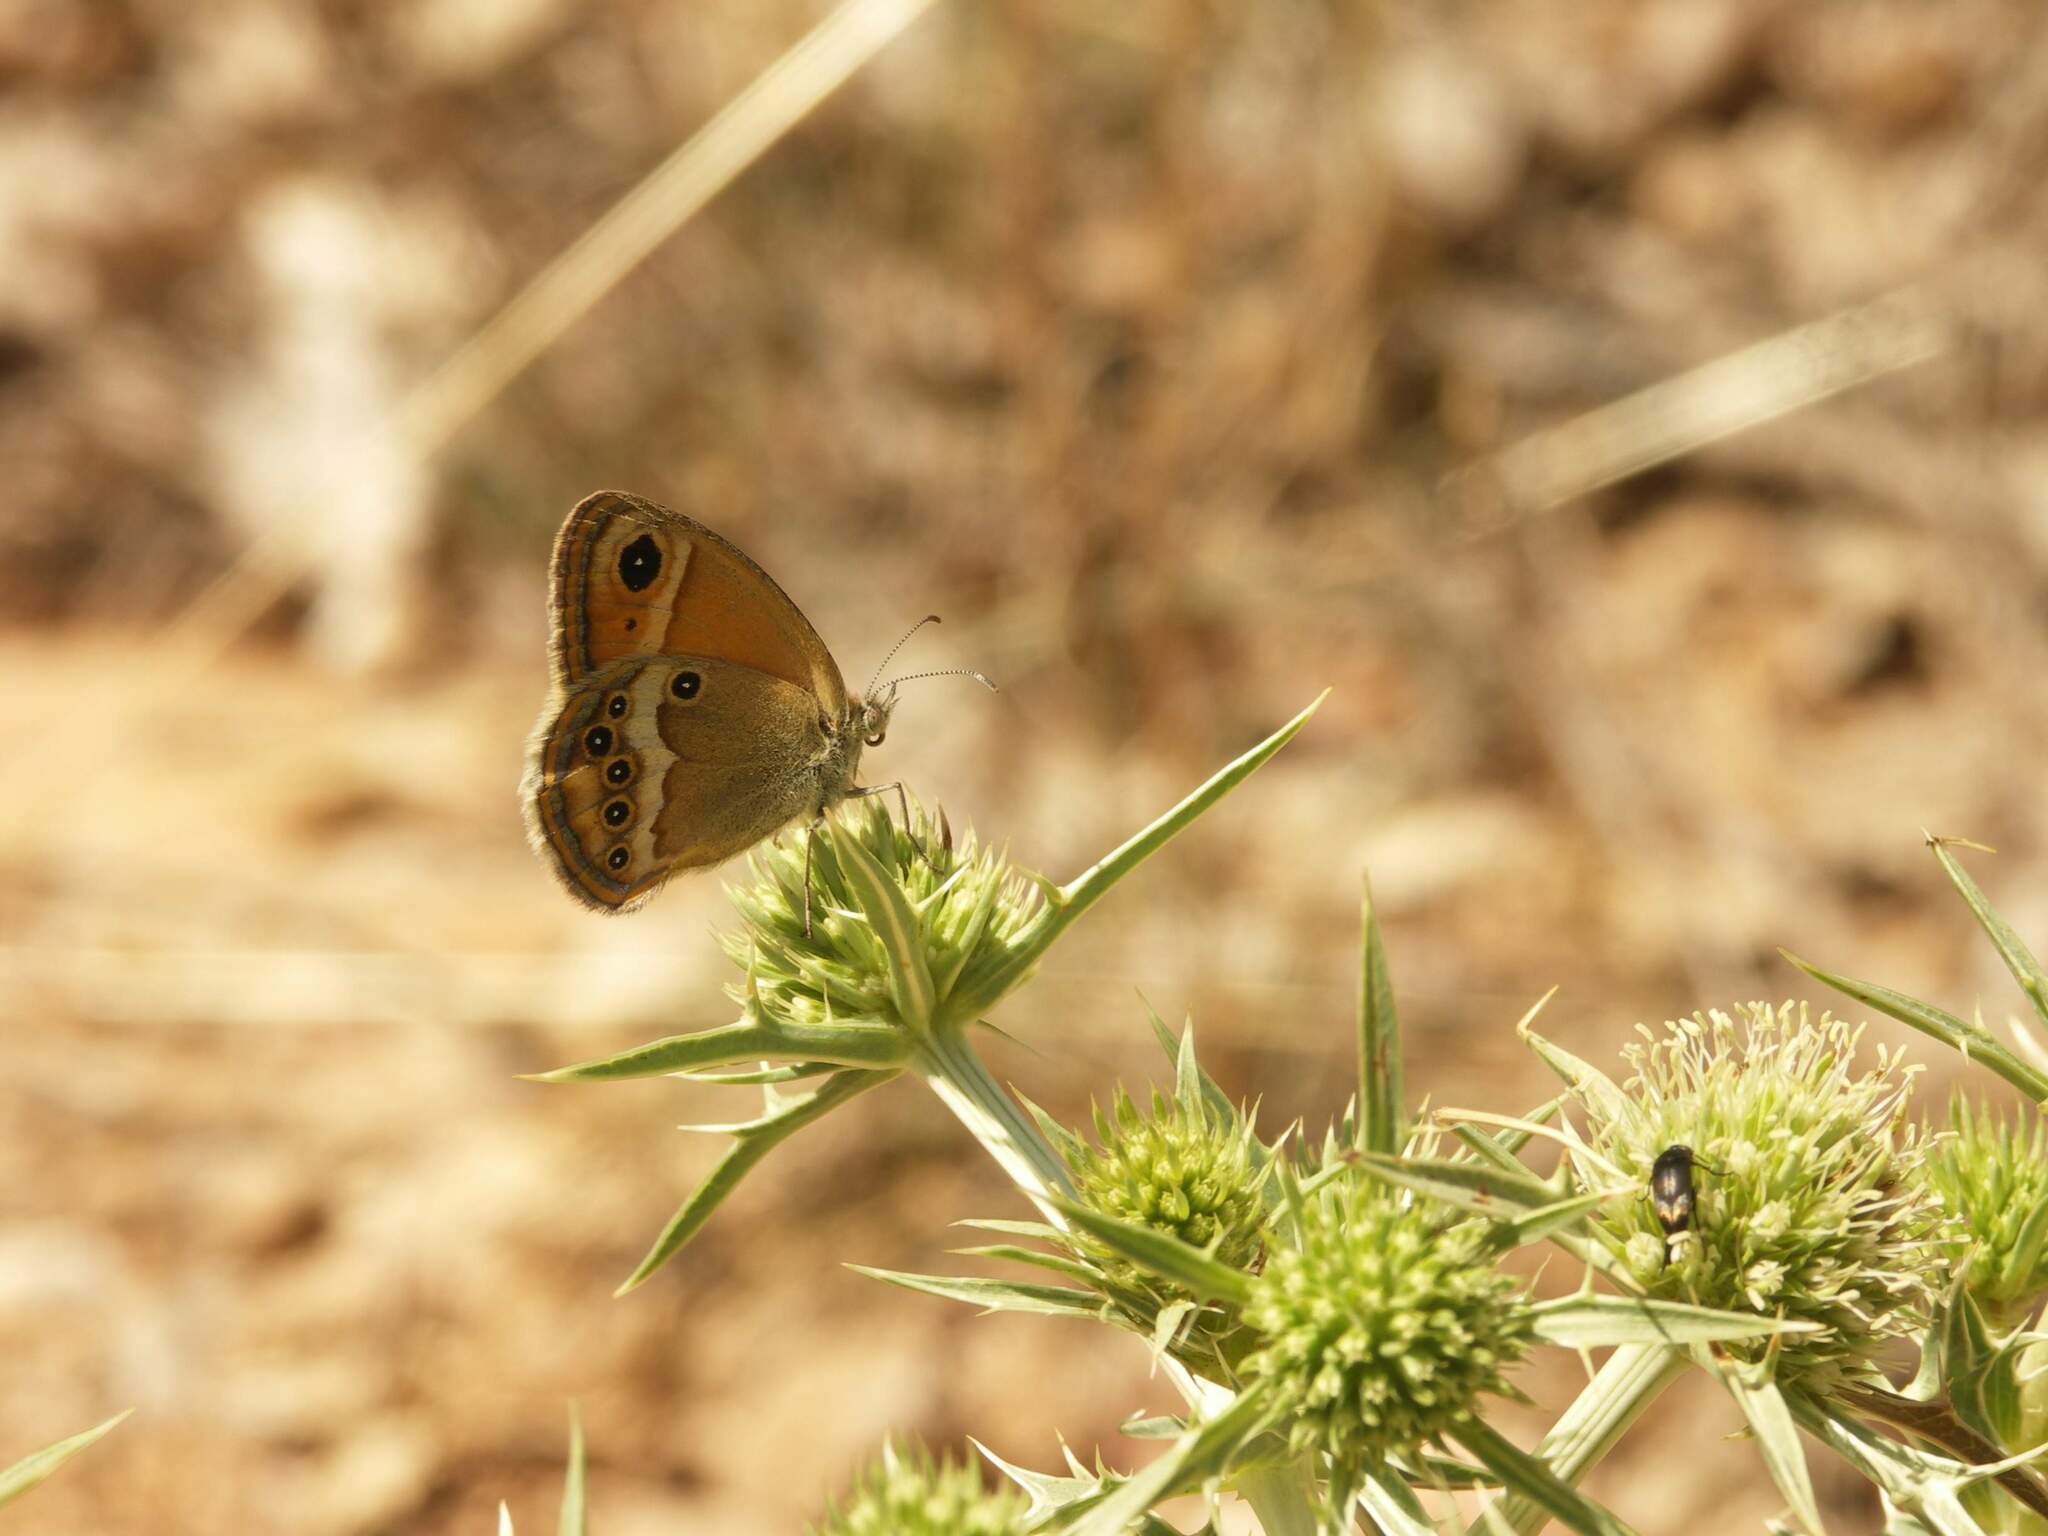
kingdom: Animalia
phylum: Arthropoda
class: Insecta
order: Lepidoptera
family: Nymphalidae
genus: Coenonympha
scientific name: Coenonympha dorus
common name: Dusky heath
